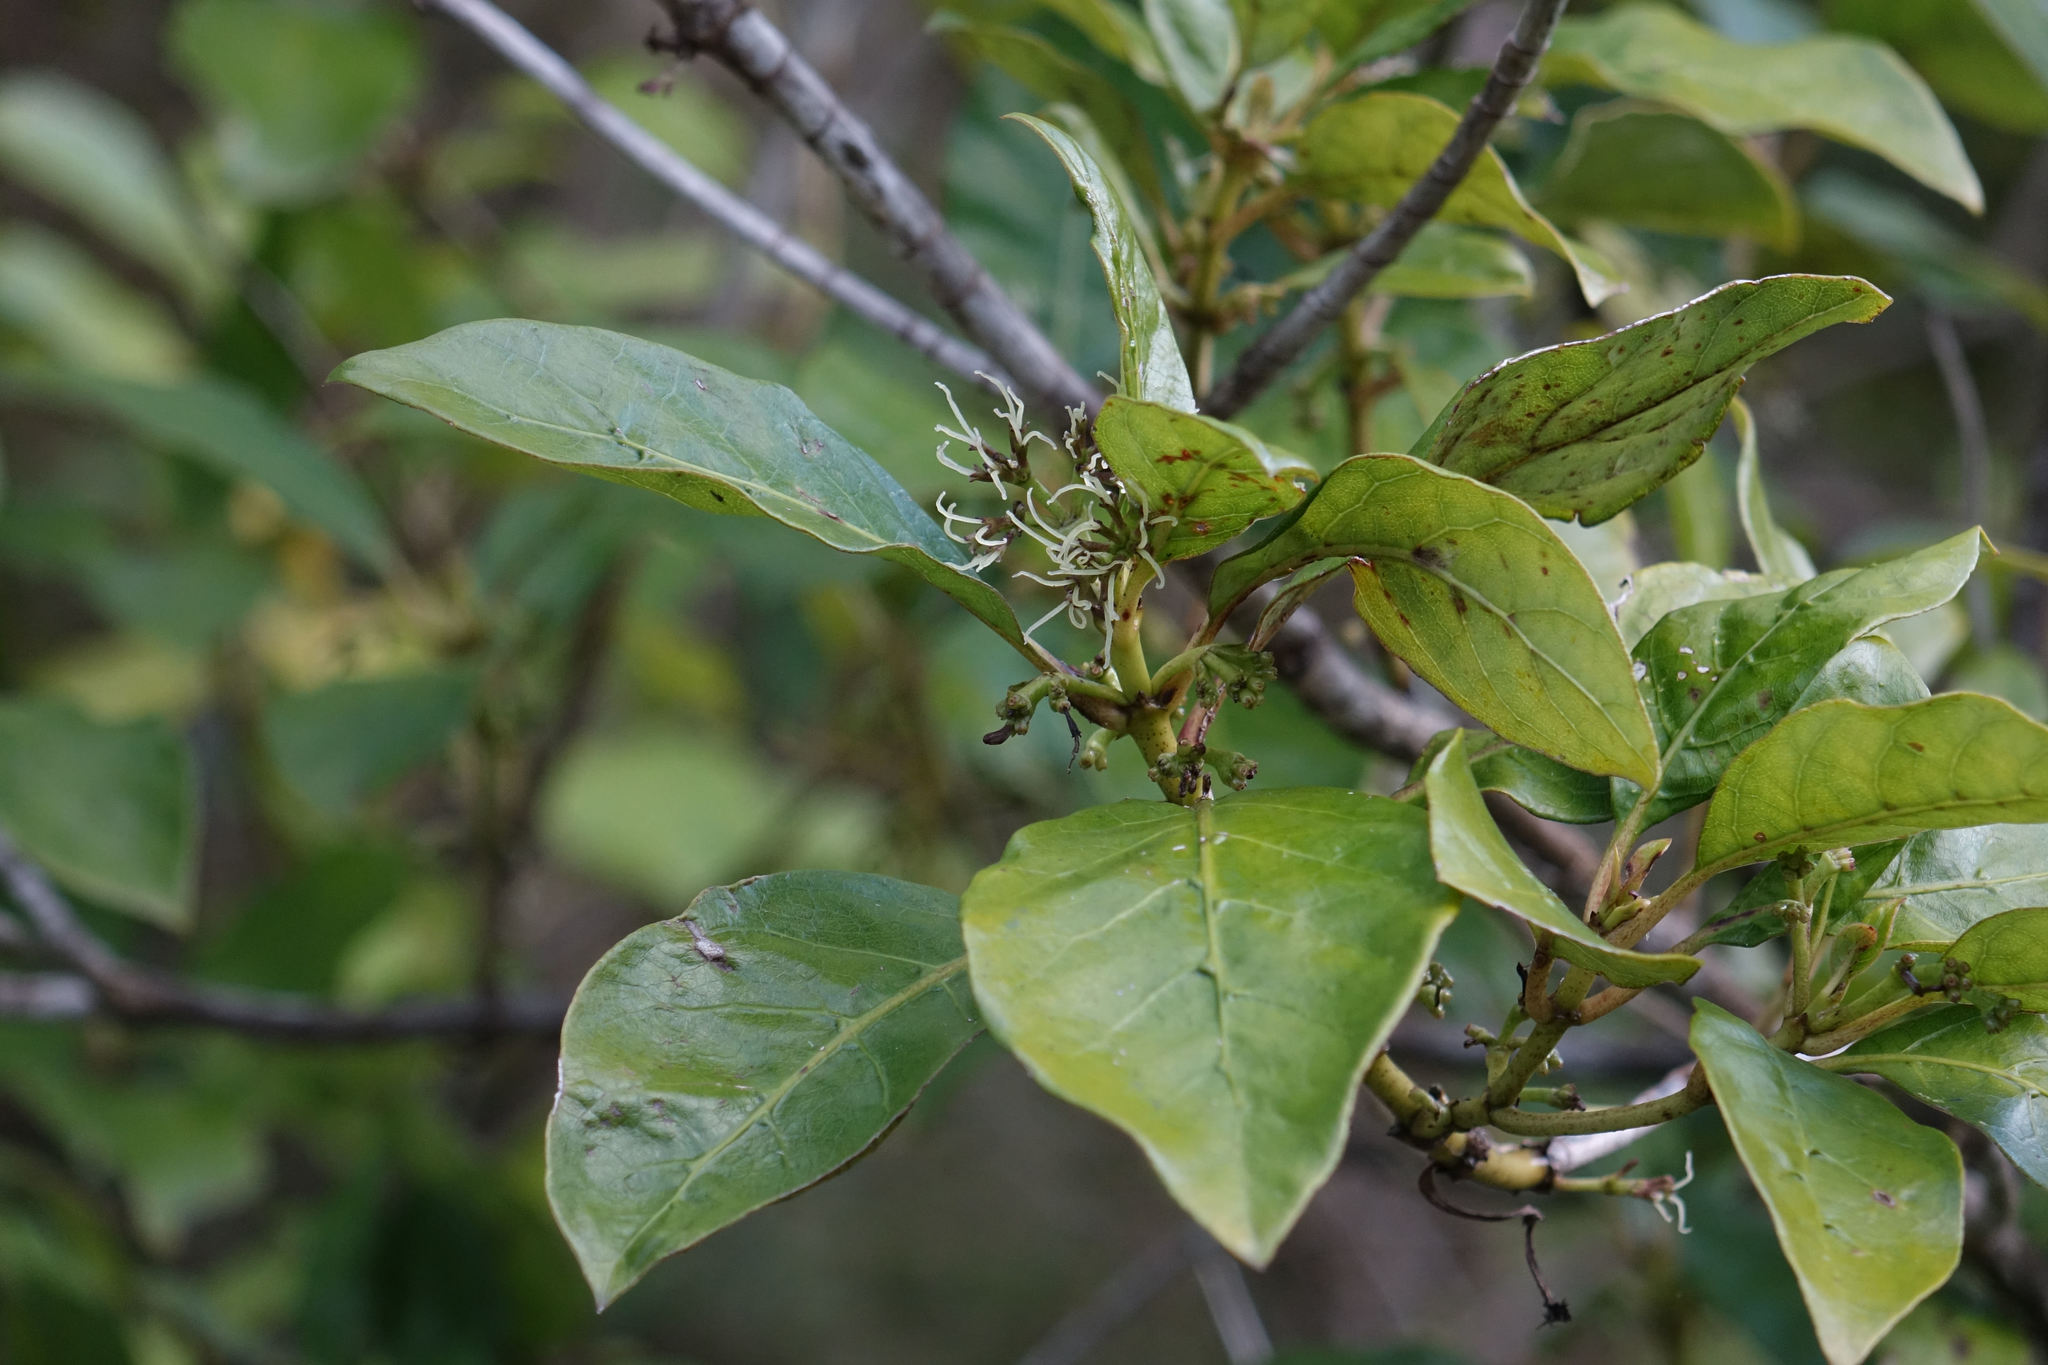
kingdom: Plantae
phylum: Tracheophyta
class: Magnoliopsida
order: Gentianales
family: Rubiaceae
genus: Coprosma
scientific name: Coprosma autumnalis
